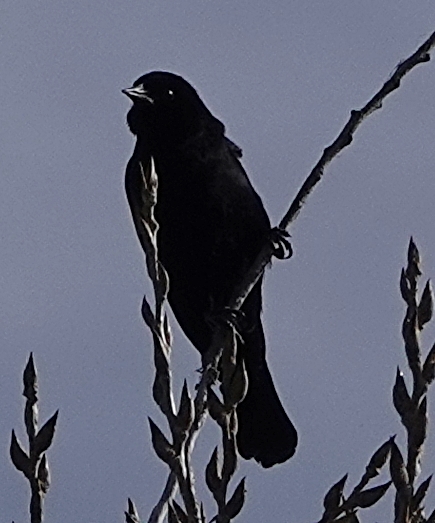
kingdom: Animalia
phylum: Chordata
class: Aves
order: Passeriformes
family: Icteridae
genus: Agelaius
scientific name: Agelaius phoeniceus
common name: Red-winged blackbird
